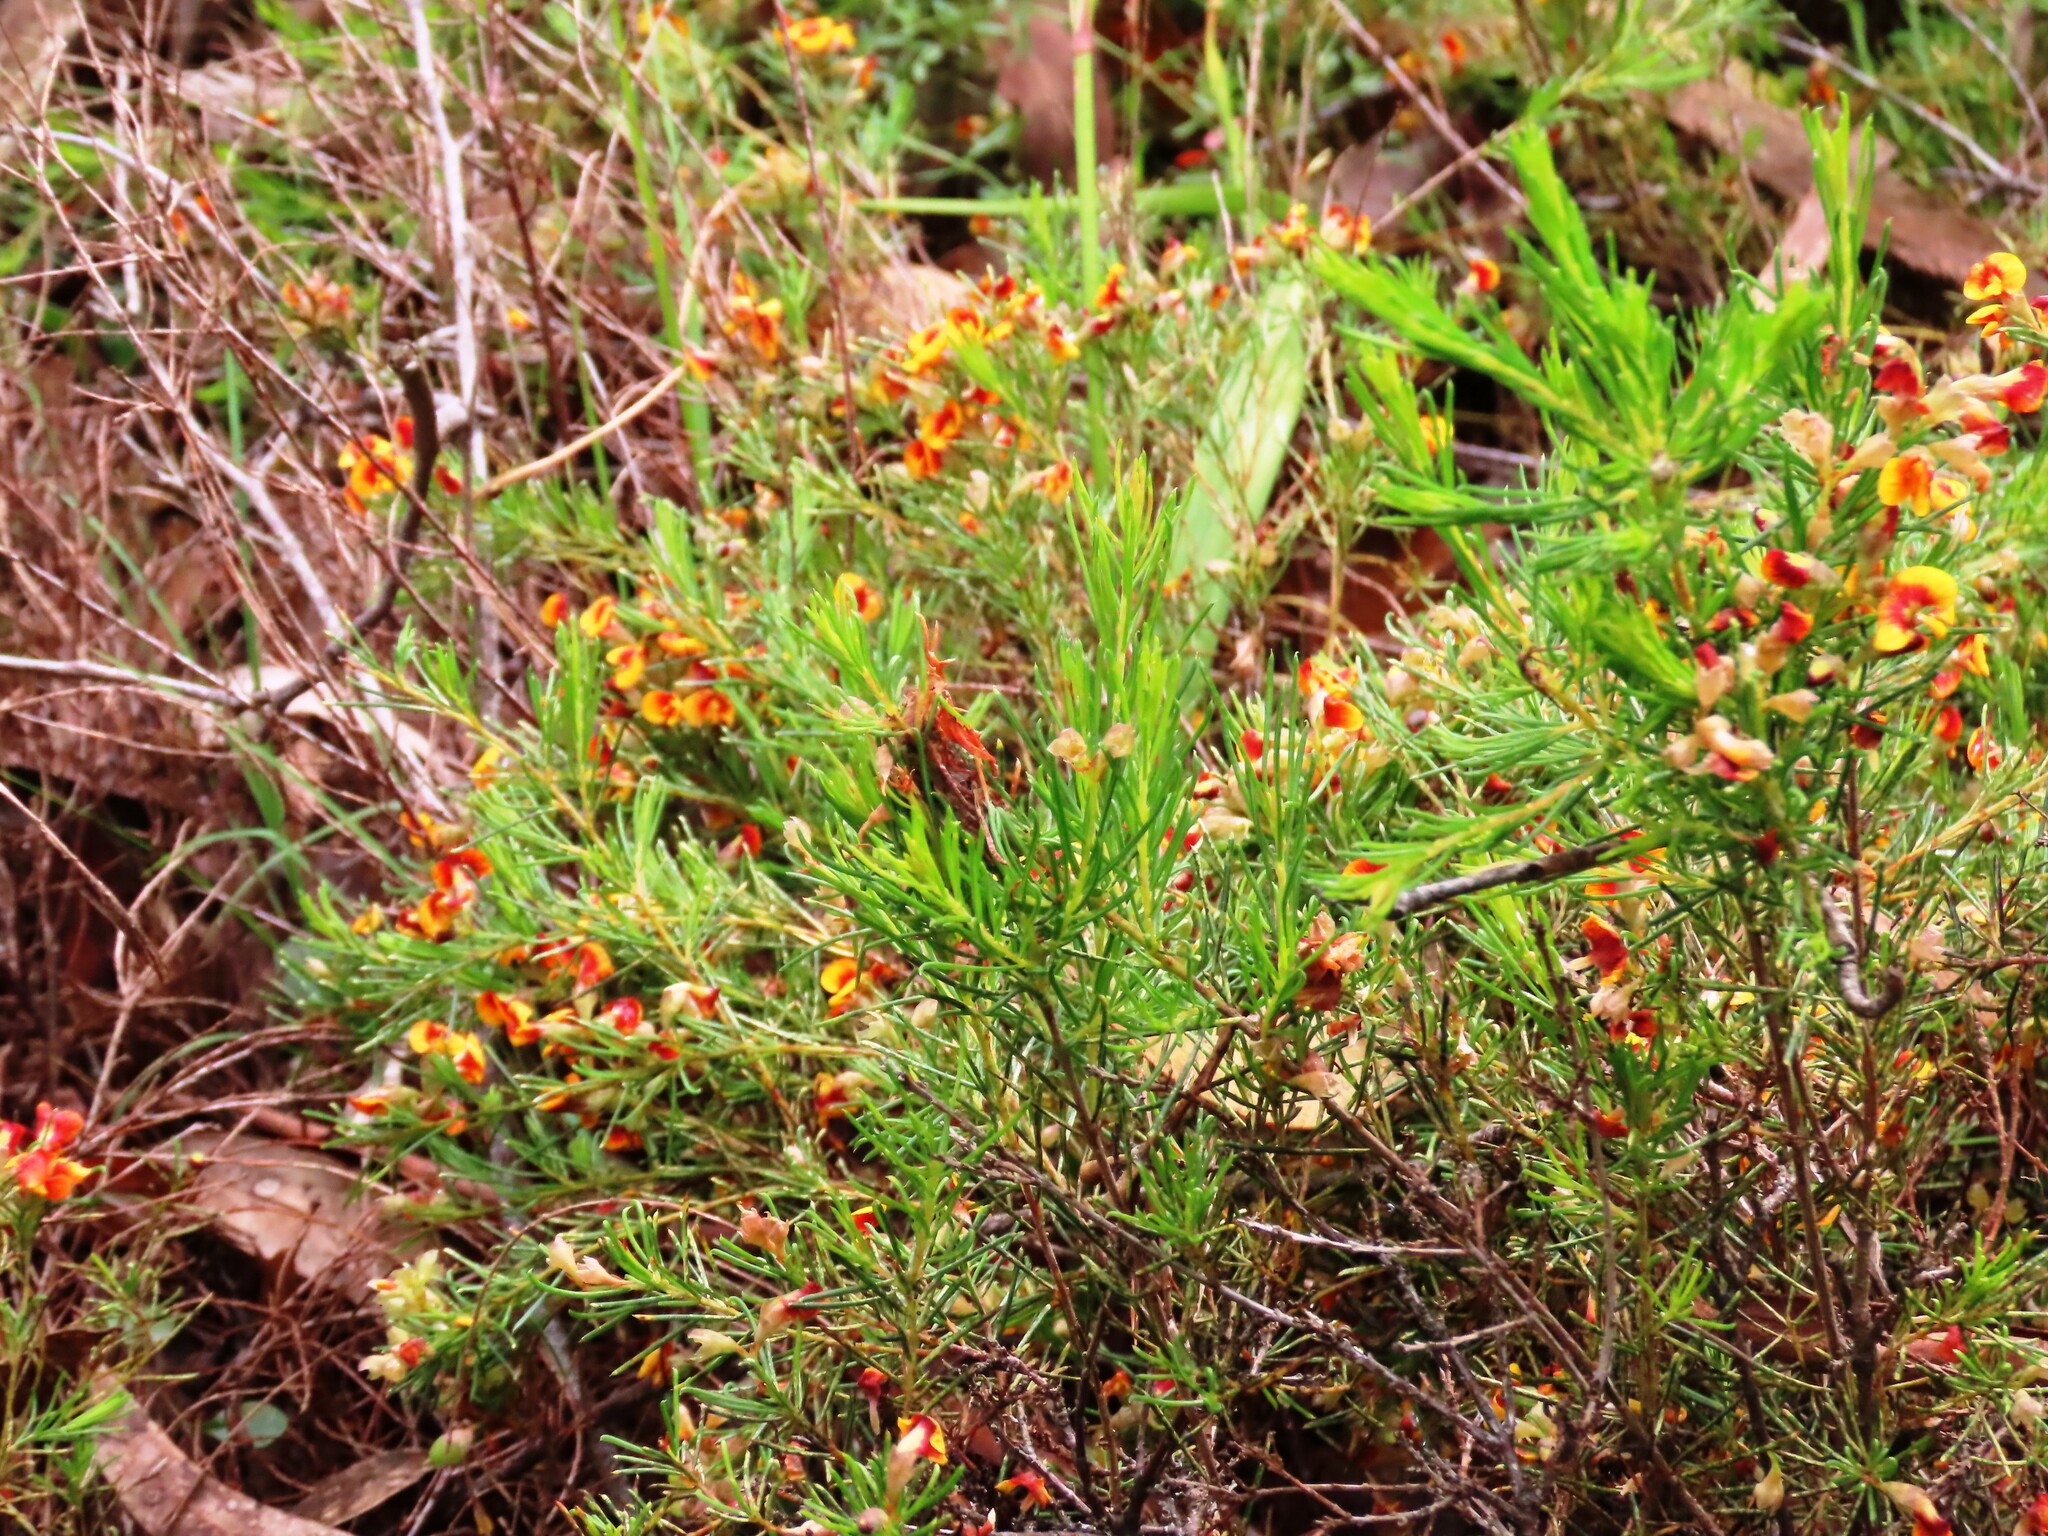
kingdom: Plantae
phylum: Tracheophyta
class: Magnoliopsida
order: Fabales
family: Fabaceae
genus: Dillwynia
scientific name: Dillwynia cinerascens
